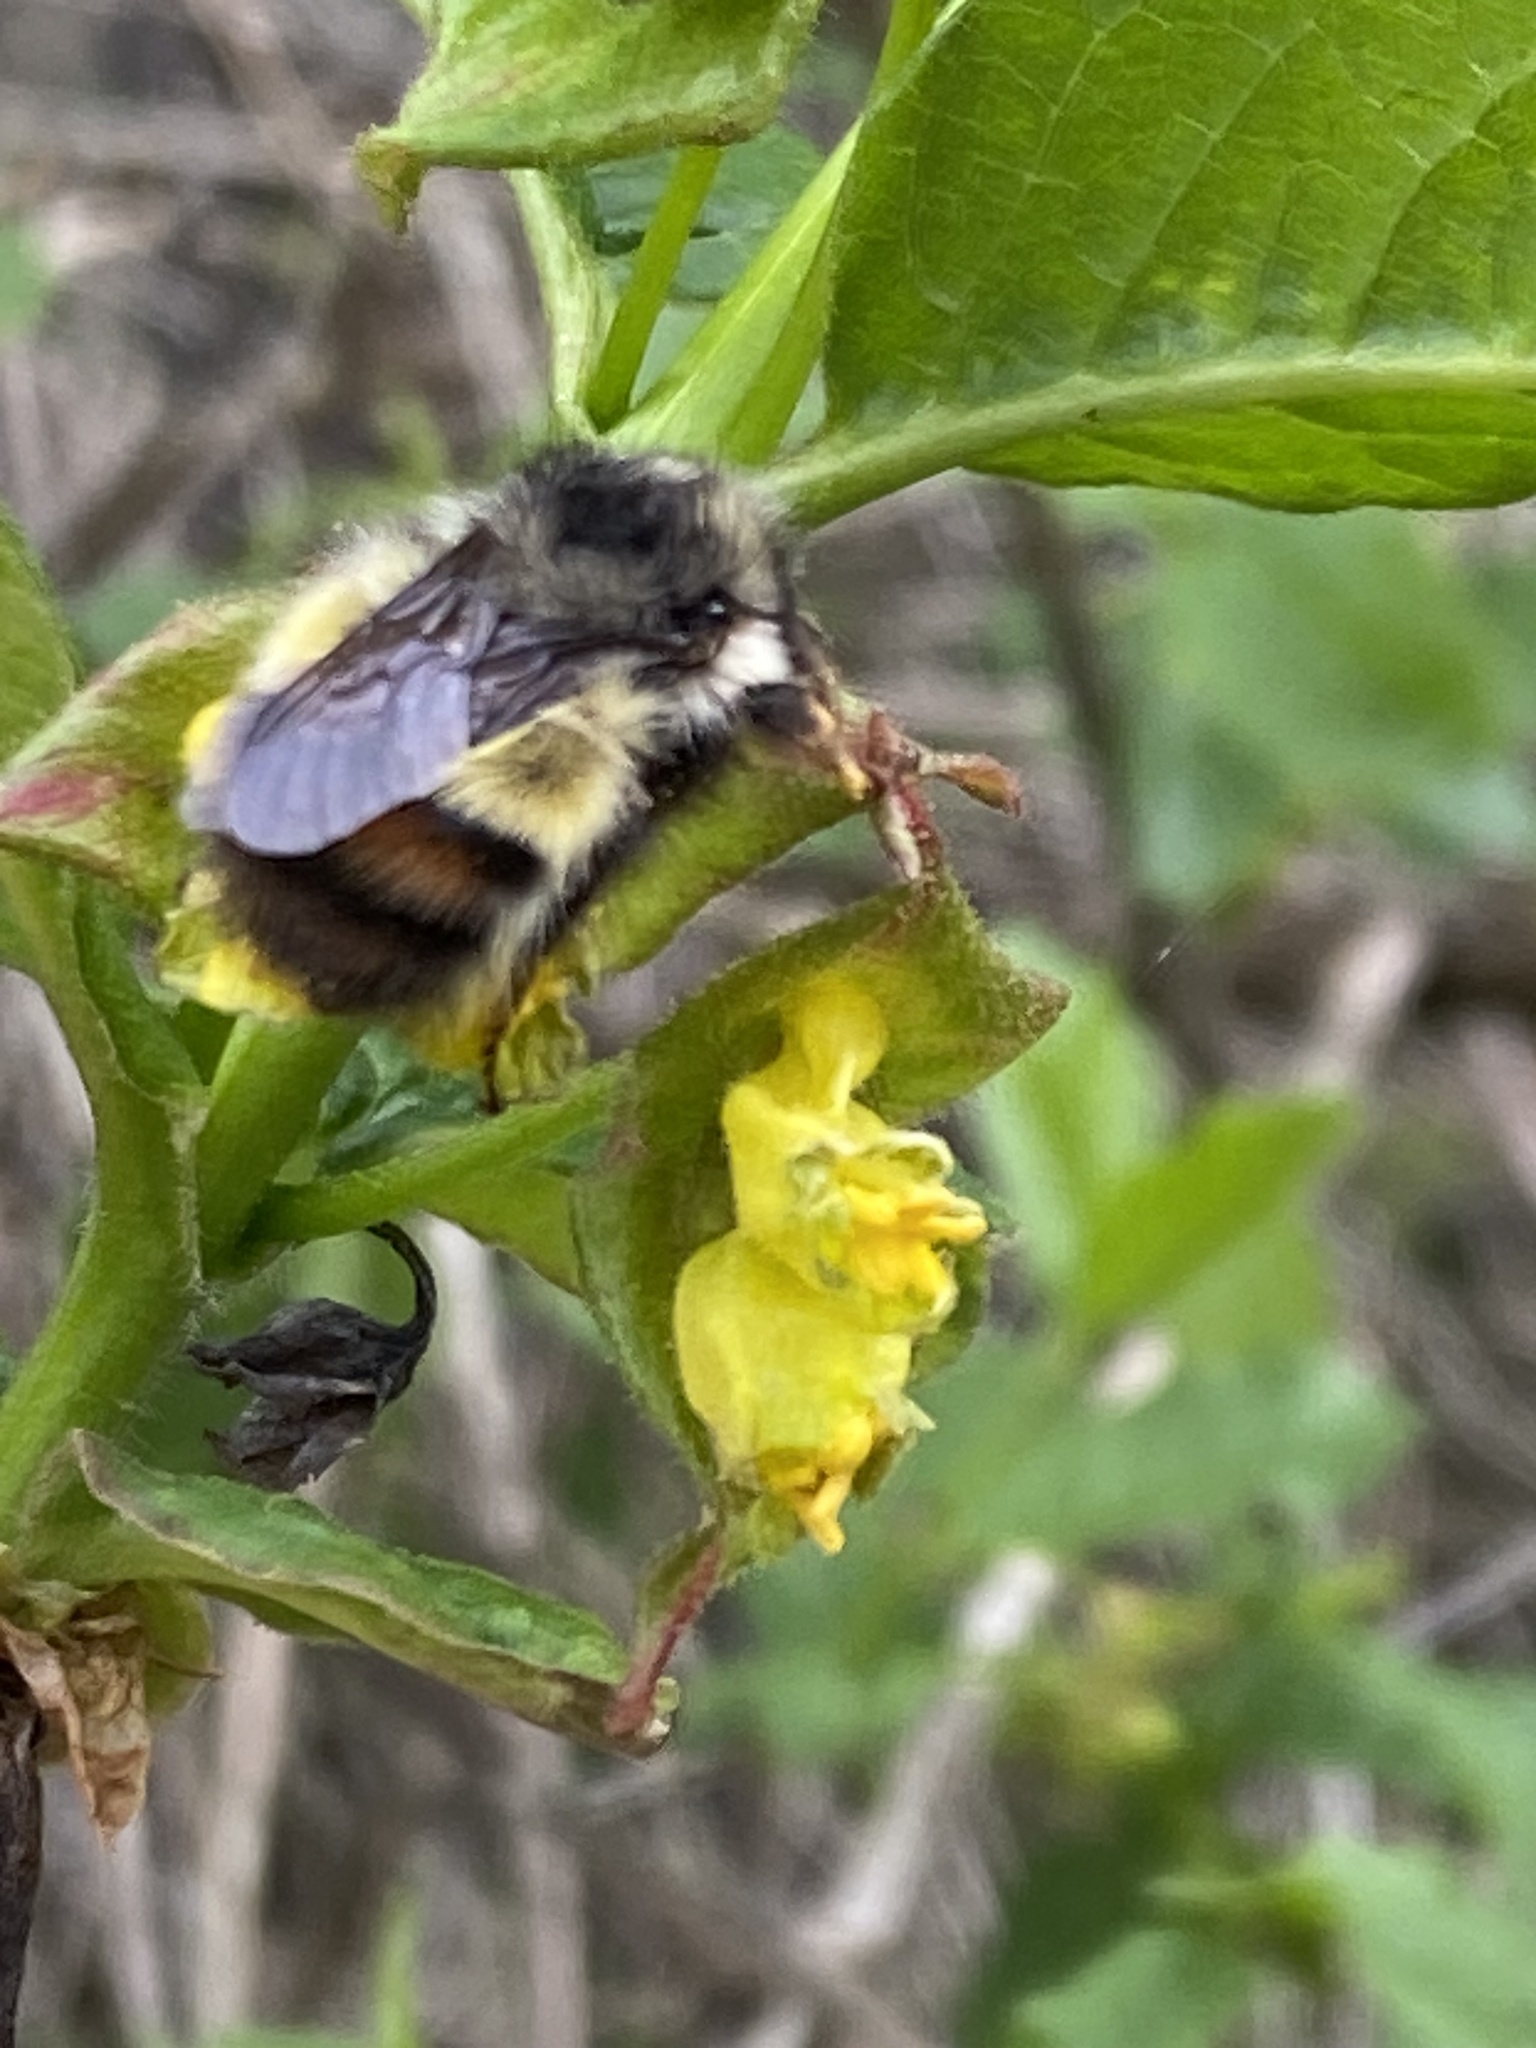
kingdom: Animalia
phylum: Arthropoda
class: Insecta
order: Hymenoptera
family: Apidae
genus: Bombus
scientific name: Bombus flavifrons
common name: Yellow head bumble bee
